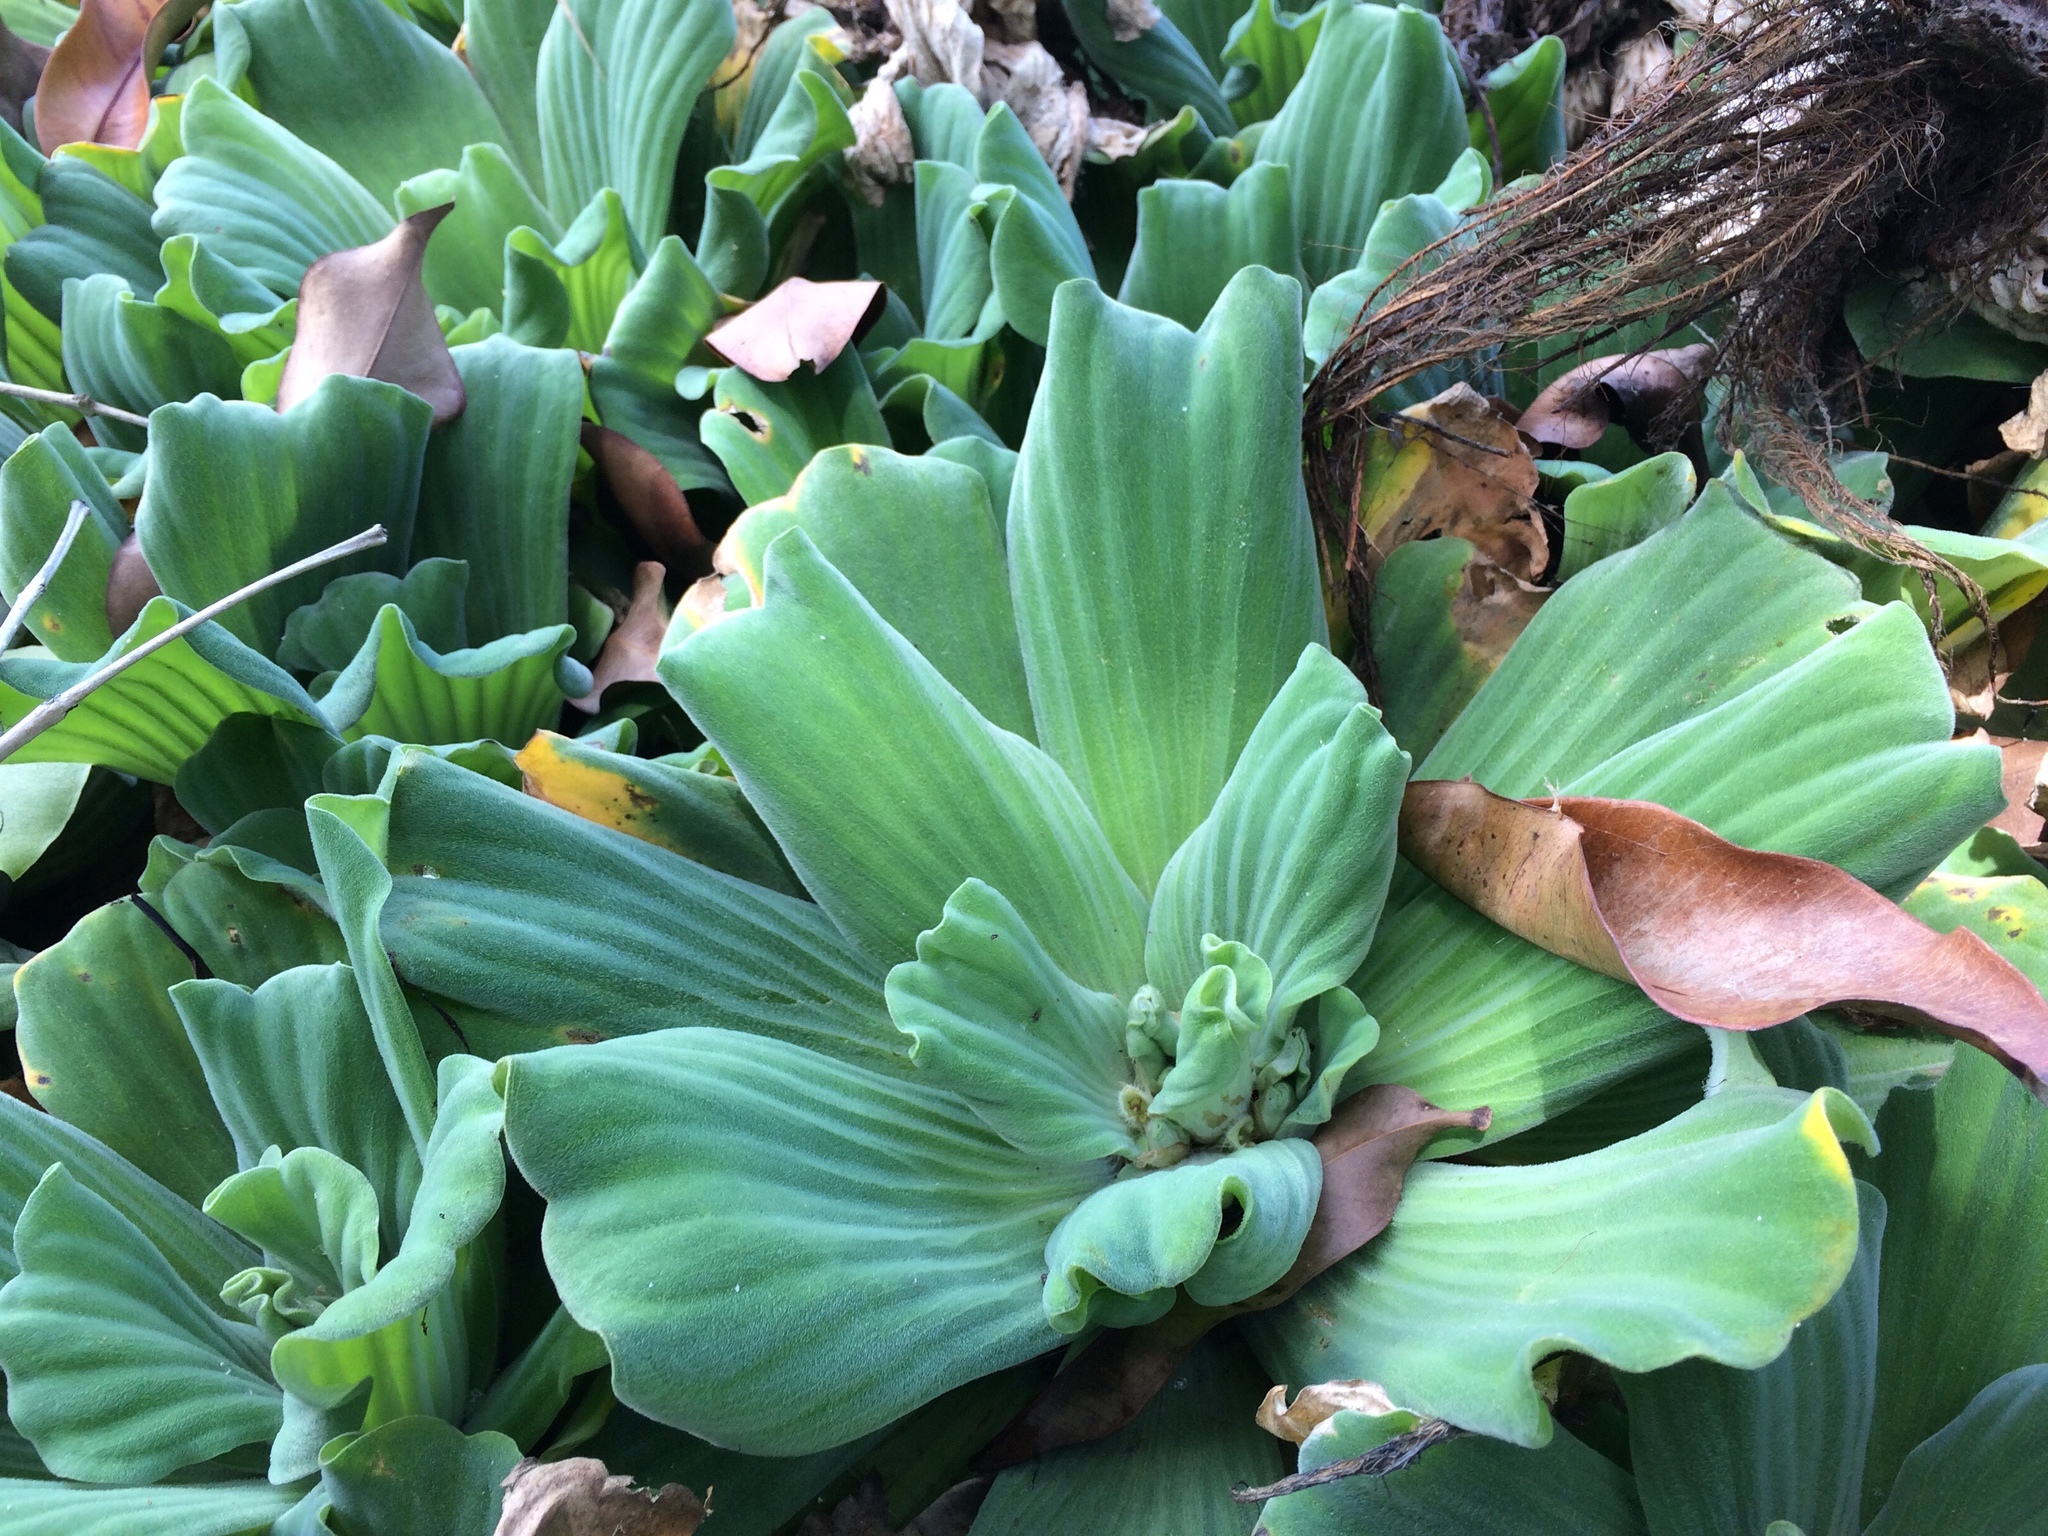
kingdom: Plantae
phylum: Tracheophyta
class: Liliopsida
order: Alismatales
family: Araceae
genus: Pistia
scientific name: Pistia stratiotes
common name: Water lettuce
